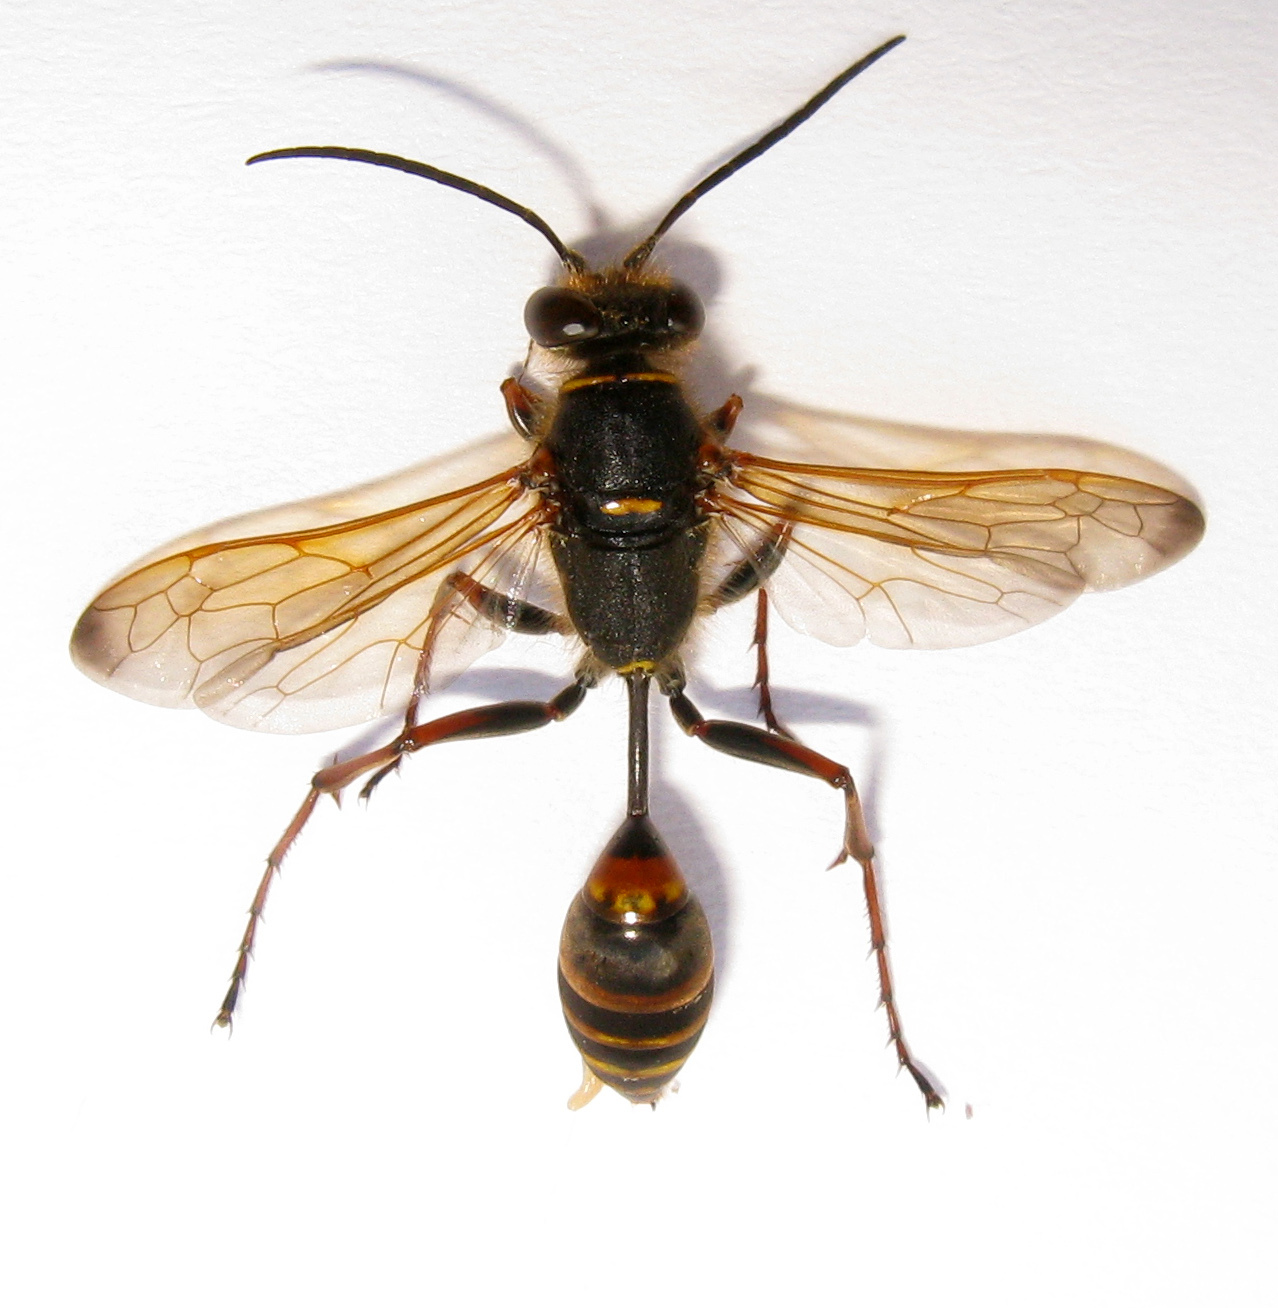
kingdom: Animalia
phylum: Arthropoda
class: Insecta
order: Hymenoptera
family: Sphecidae
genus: Sceliphron
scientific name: Sceliphron curvatum
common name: Pèlopèe
